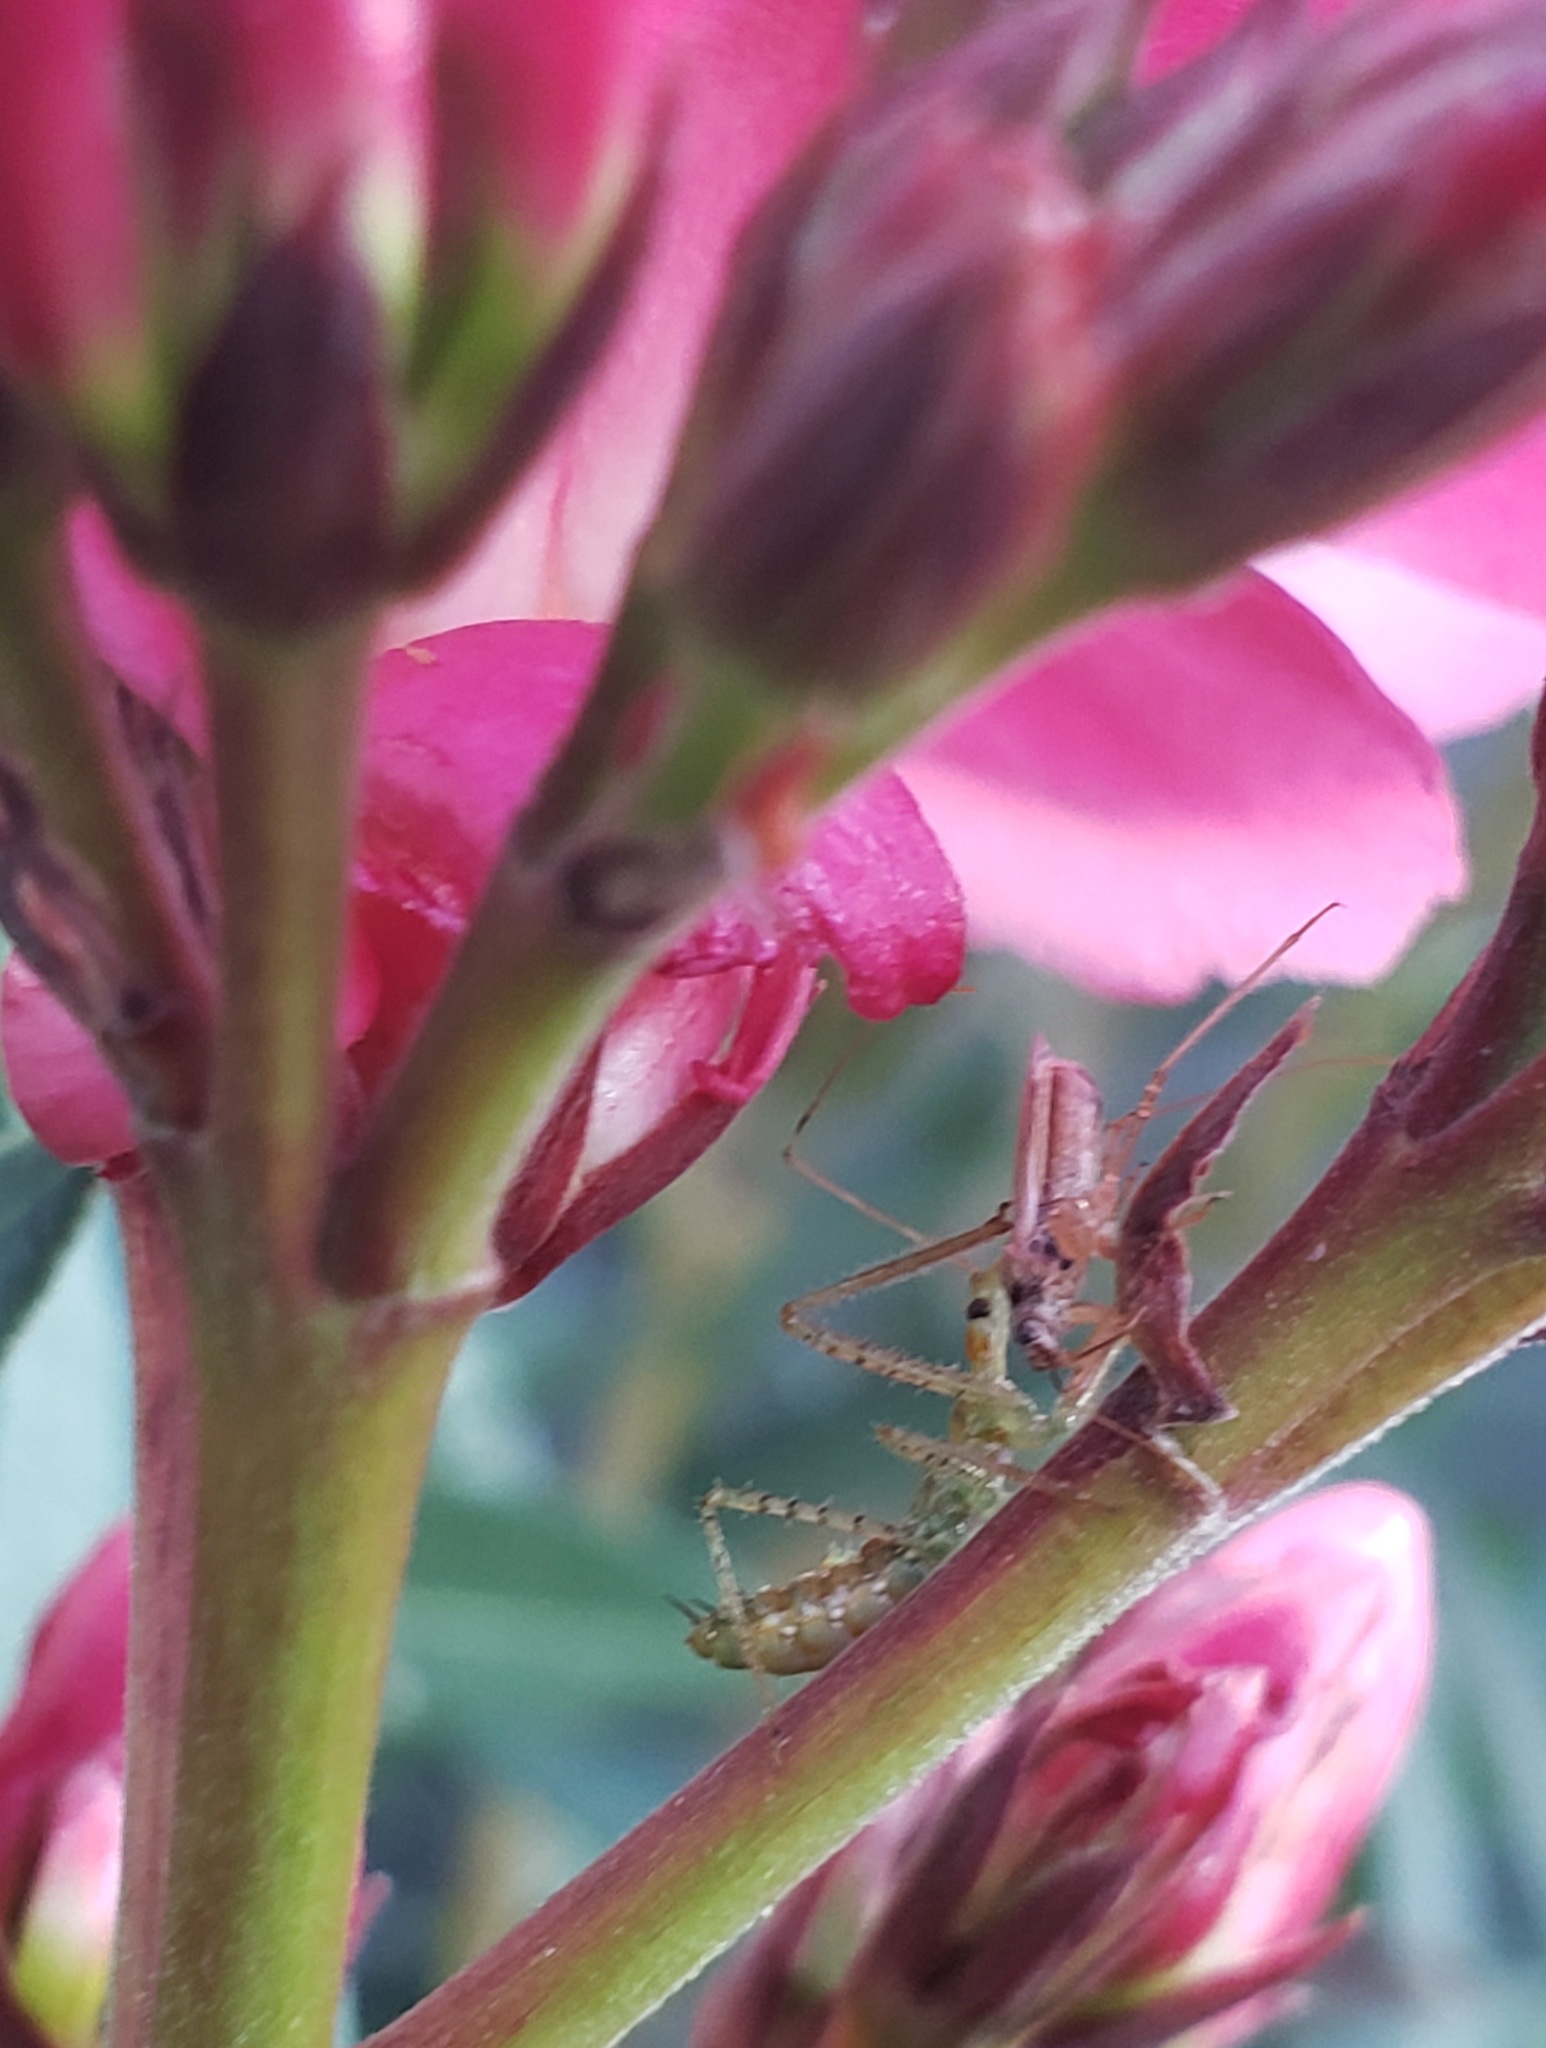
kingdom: Animalia
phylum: Arthropoda
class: Insecta
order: Hemiptera
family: Reduviidae
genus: Zelus
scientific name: Zelus renardii
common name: Assassin bug
